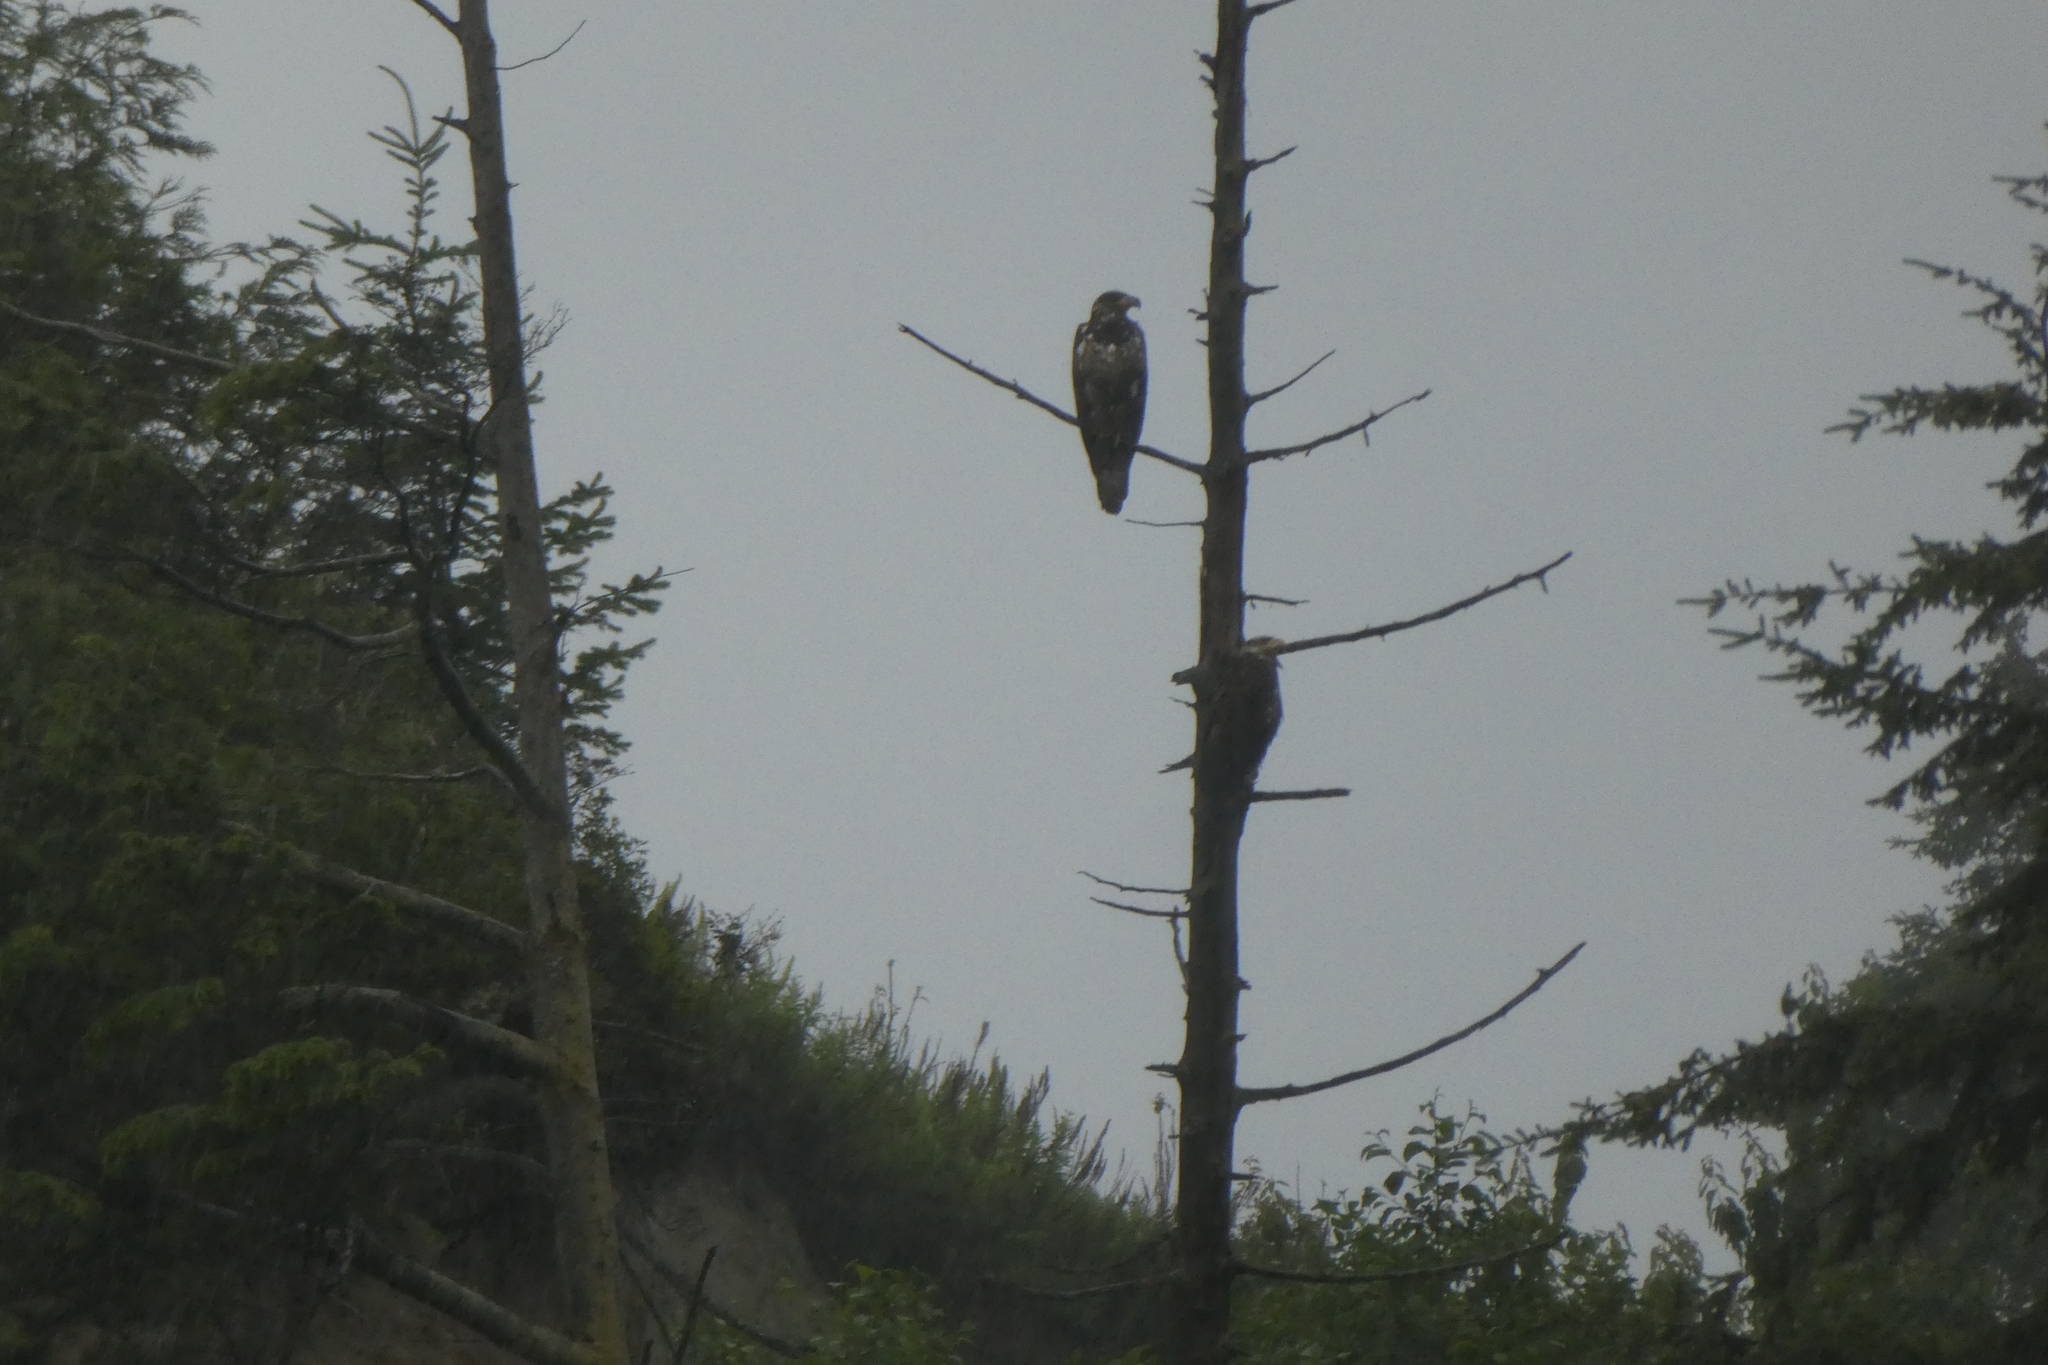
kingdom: Animalia
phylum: Chordata
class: Aves
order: Accipitriformes
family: Accipitridae
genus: Haliaeetus
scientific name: Haliaeetus leucocephalus
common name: Bald eagle
